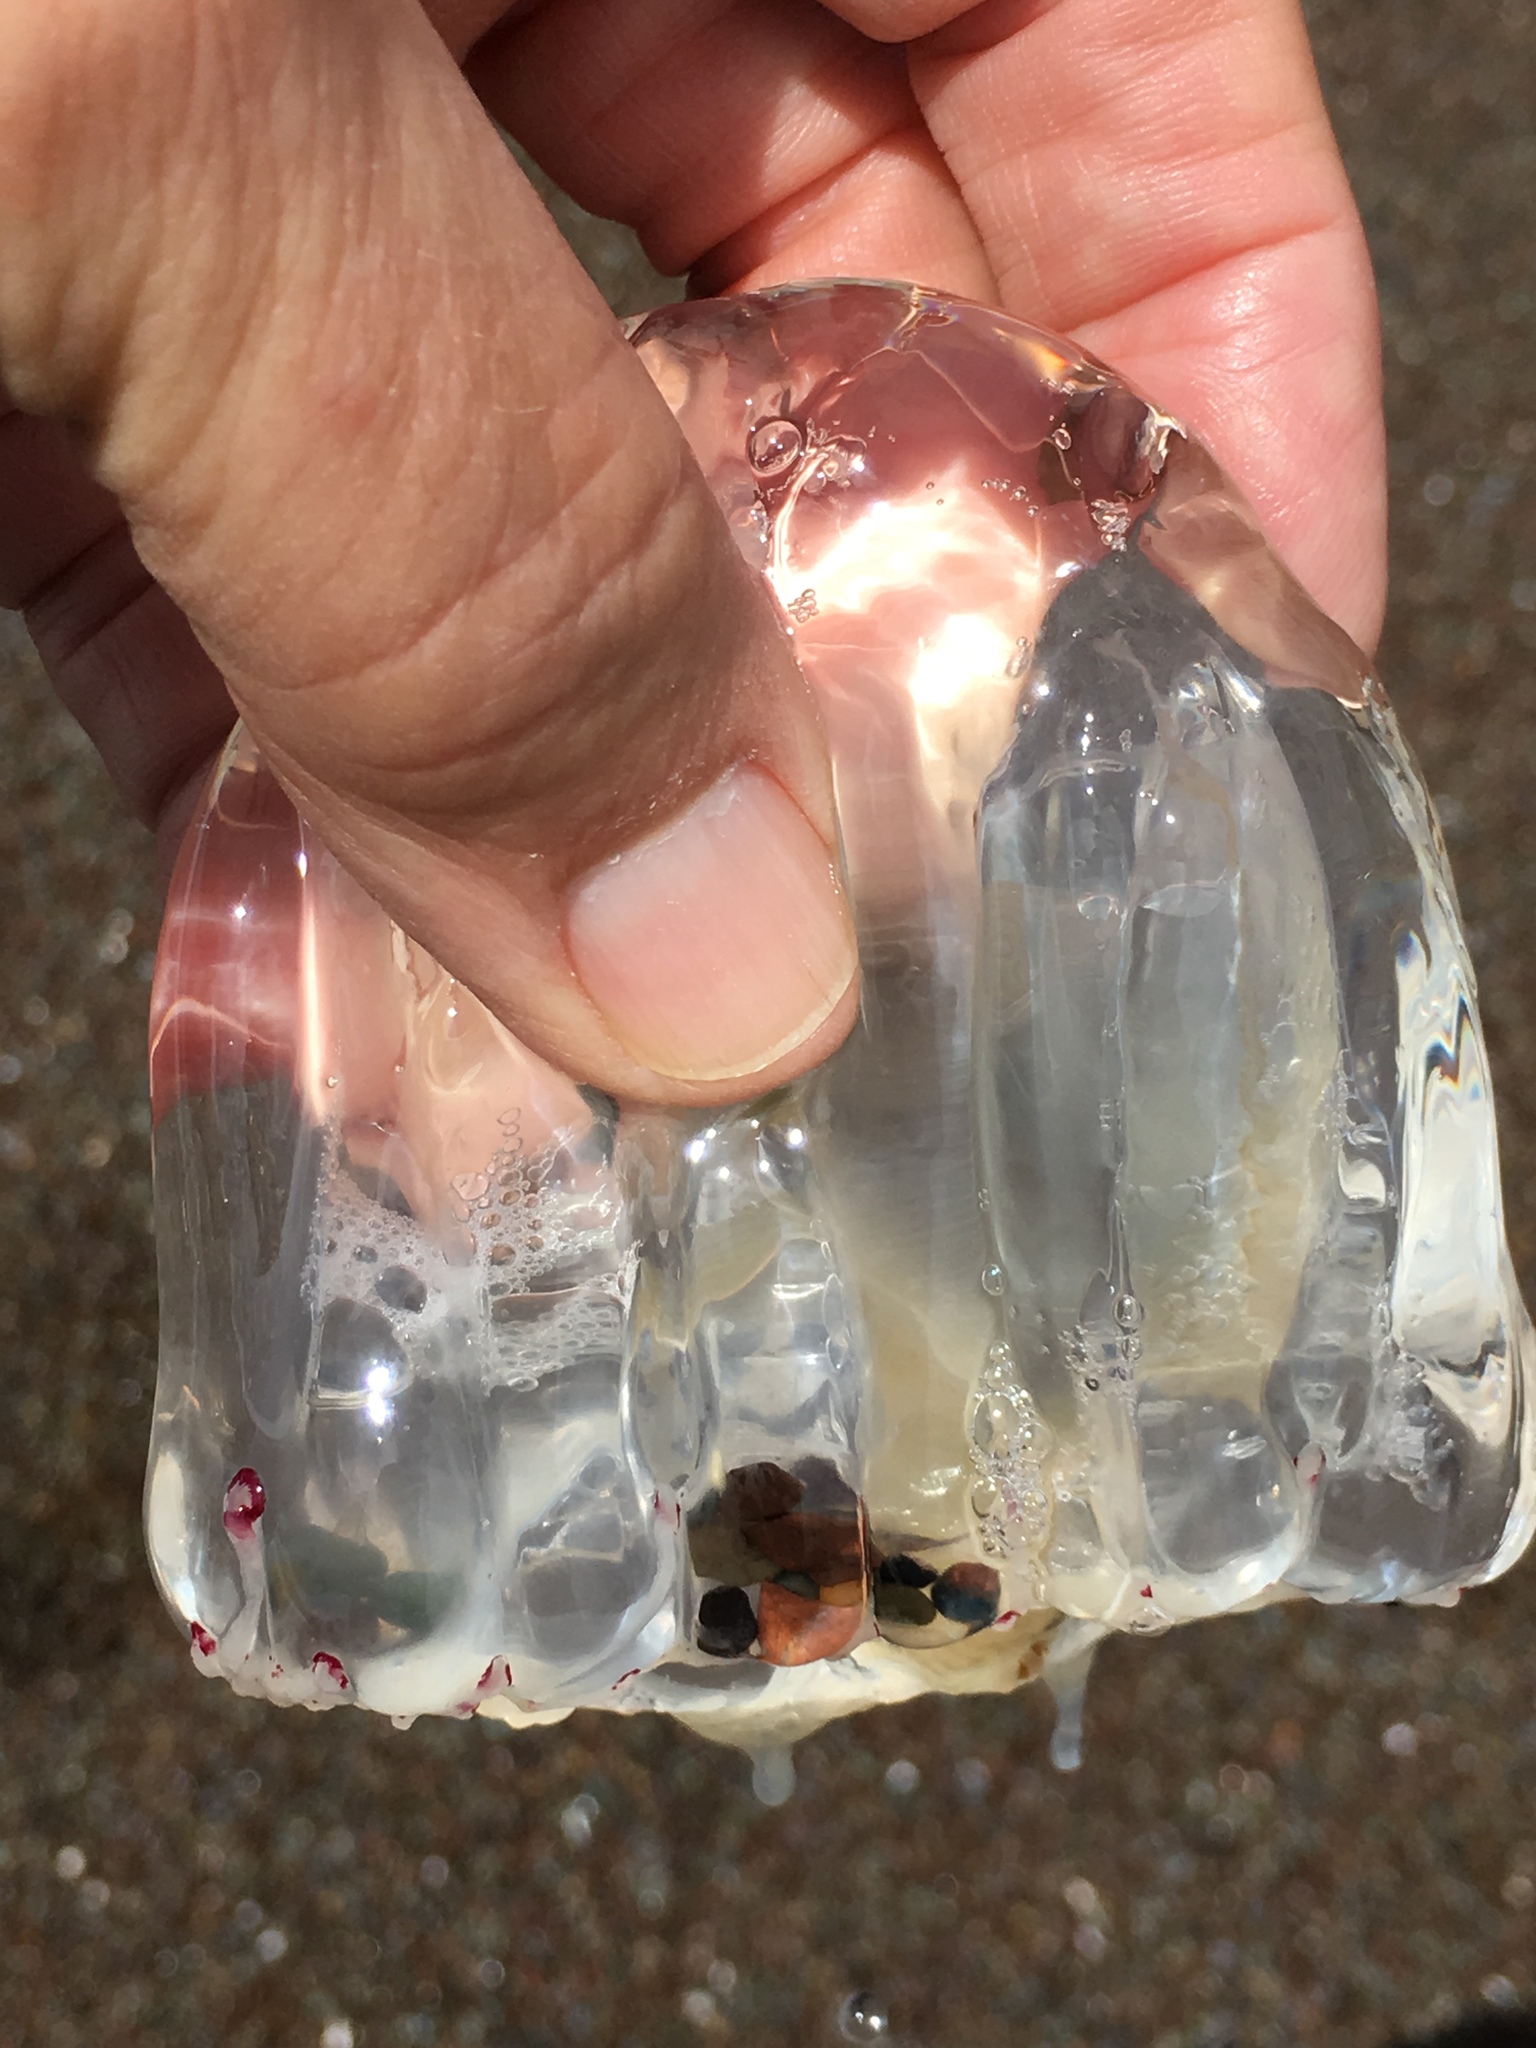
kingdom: Animalia
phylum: Cnidaria
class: Hydrozoa
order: Anthoathecata
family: Corynidae
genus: Scrippsia
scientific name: Scrippsia pacifica
